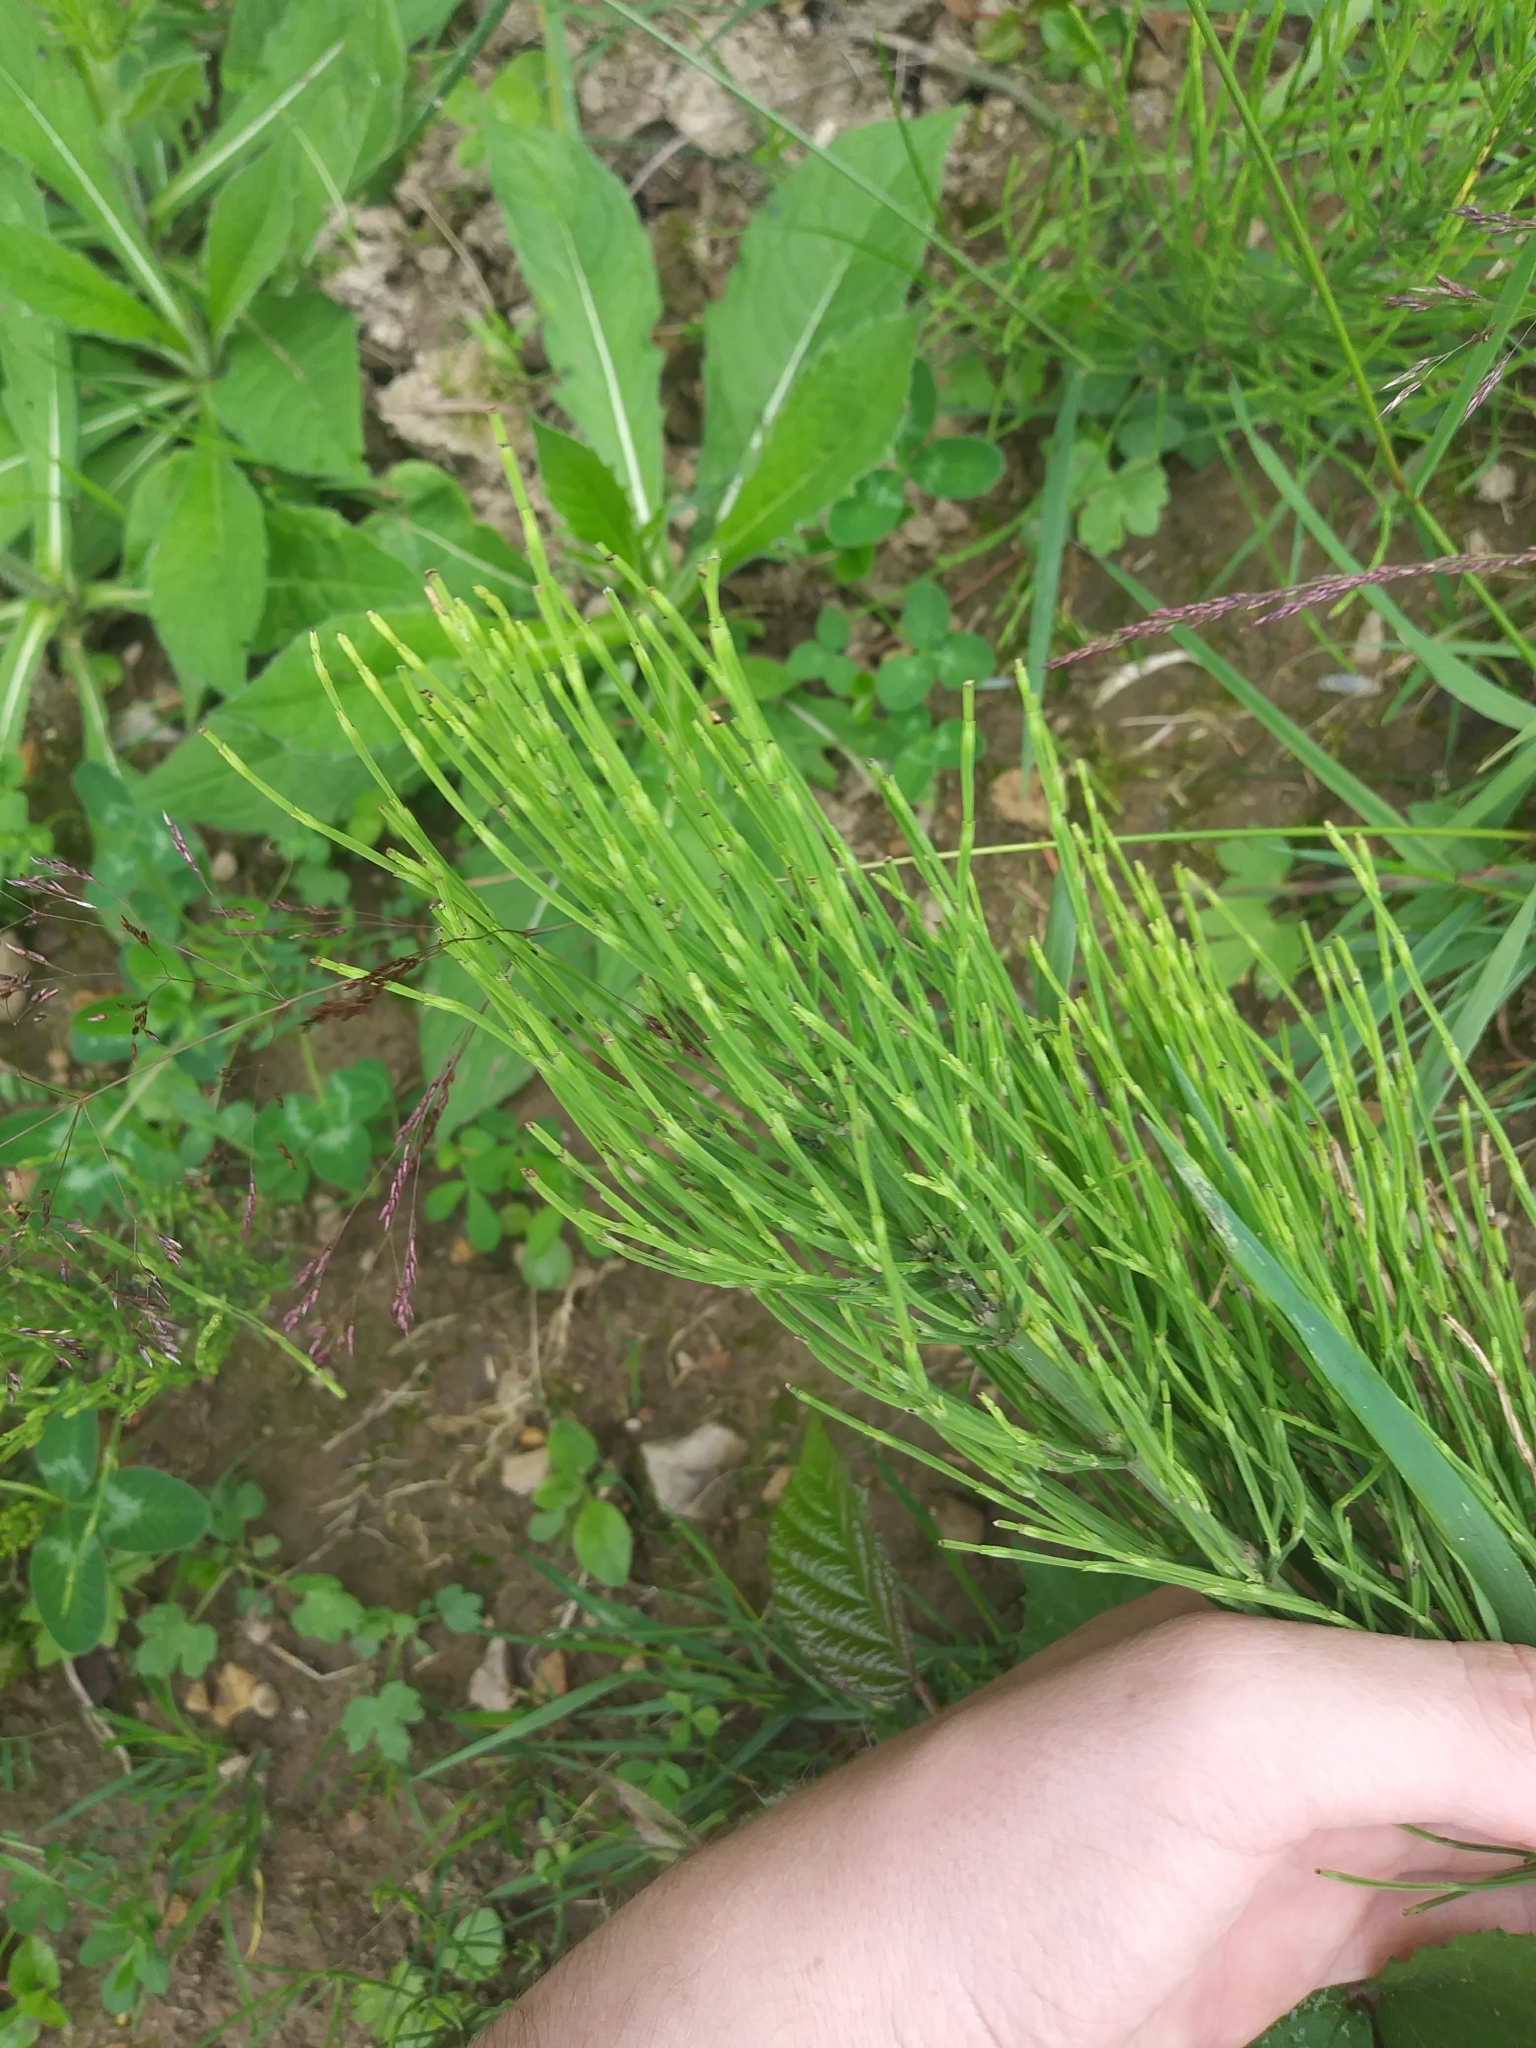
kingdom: Plantae
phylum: Tracheophyta
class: Polypodiopsida
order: Equisetales
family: Equisetaceae
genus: Equisetum
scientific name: Equisetum arvense
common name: Field horsetail
